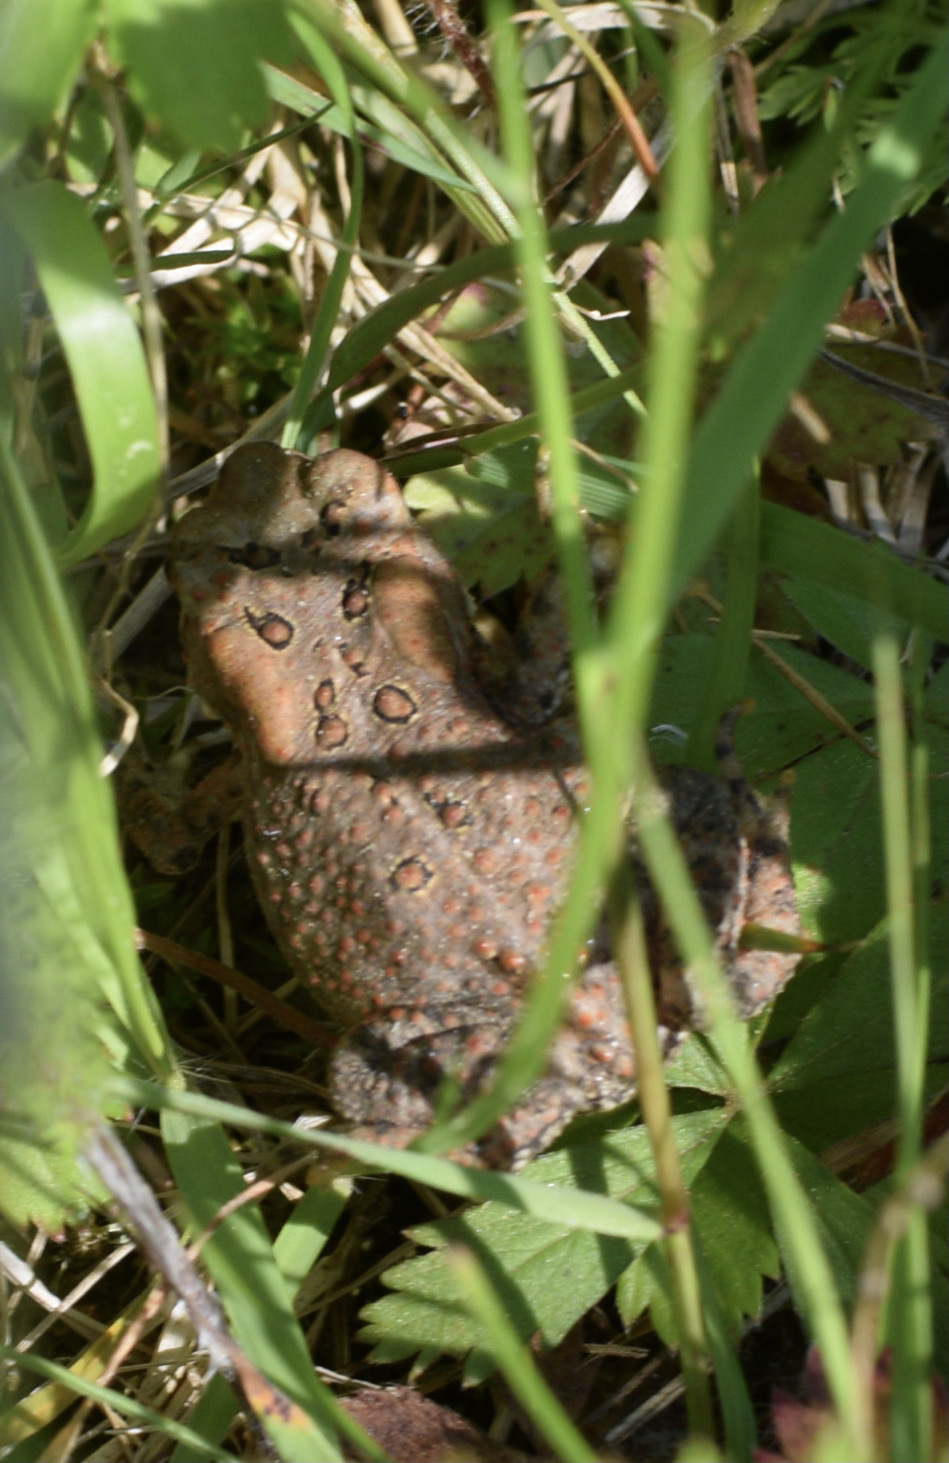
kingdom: Animalia
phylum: Chordata
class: Amphibia
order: Anura
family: Bufonidae
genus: Anaxyrus
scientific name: Anaxyrus americanus
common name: American toad
